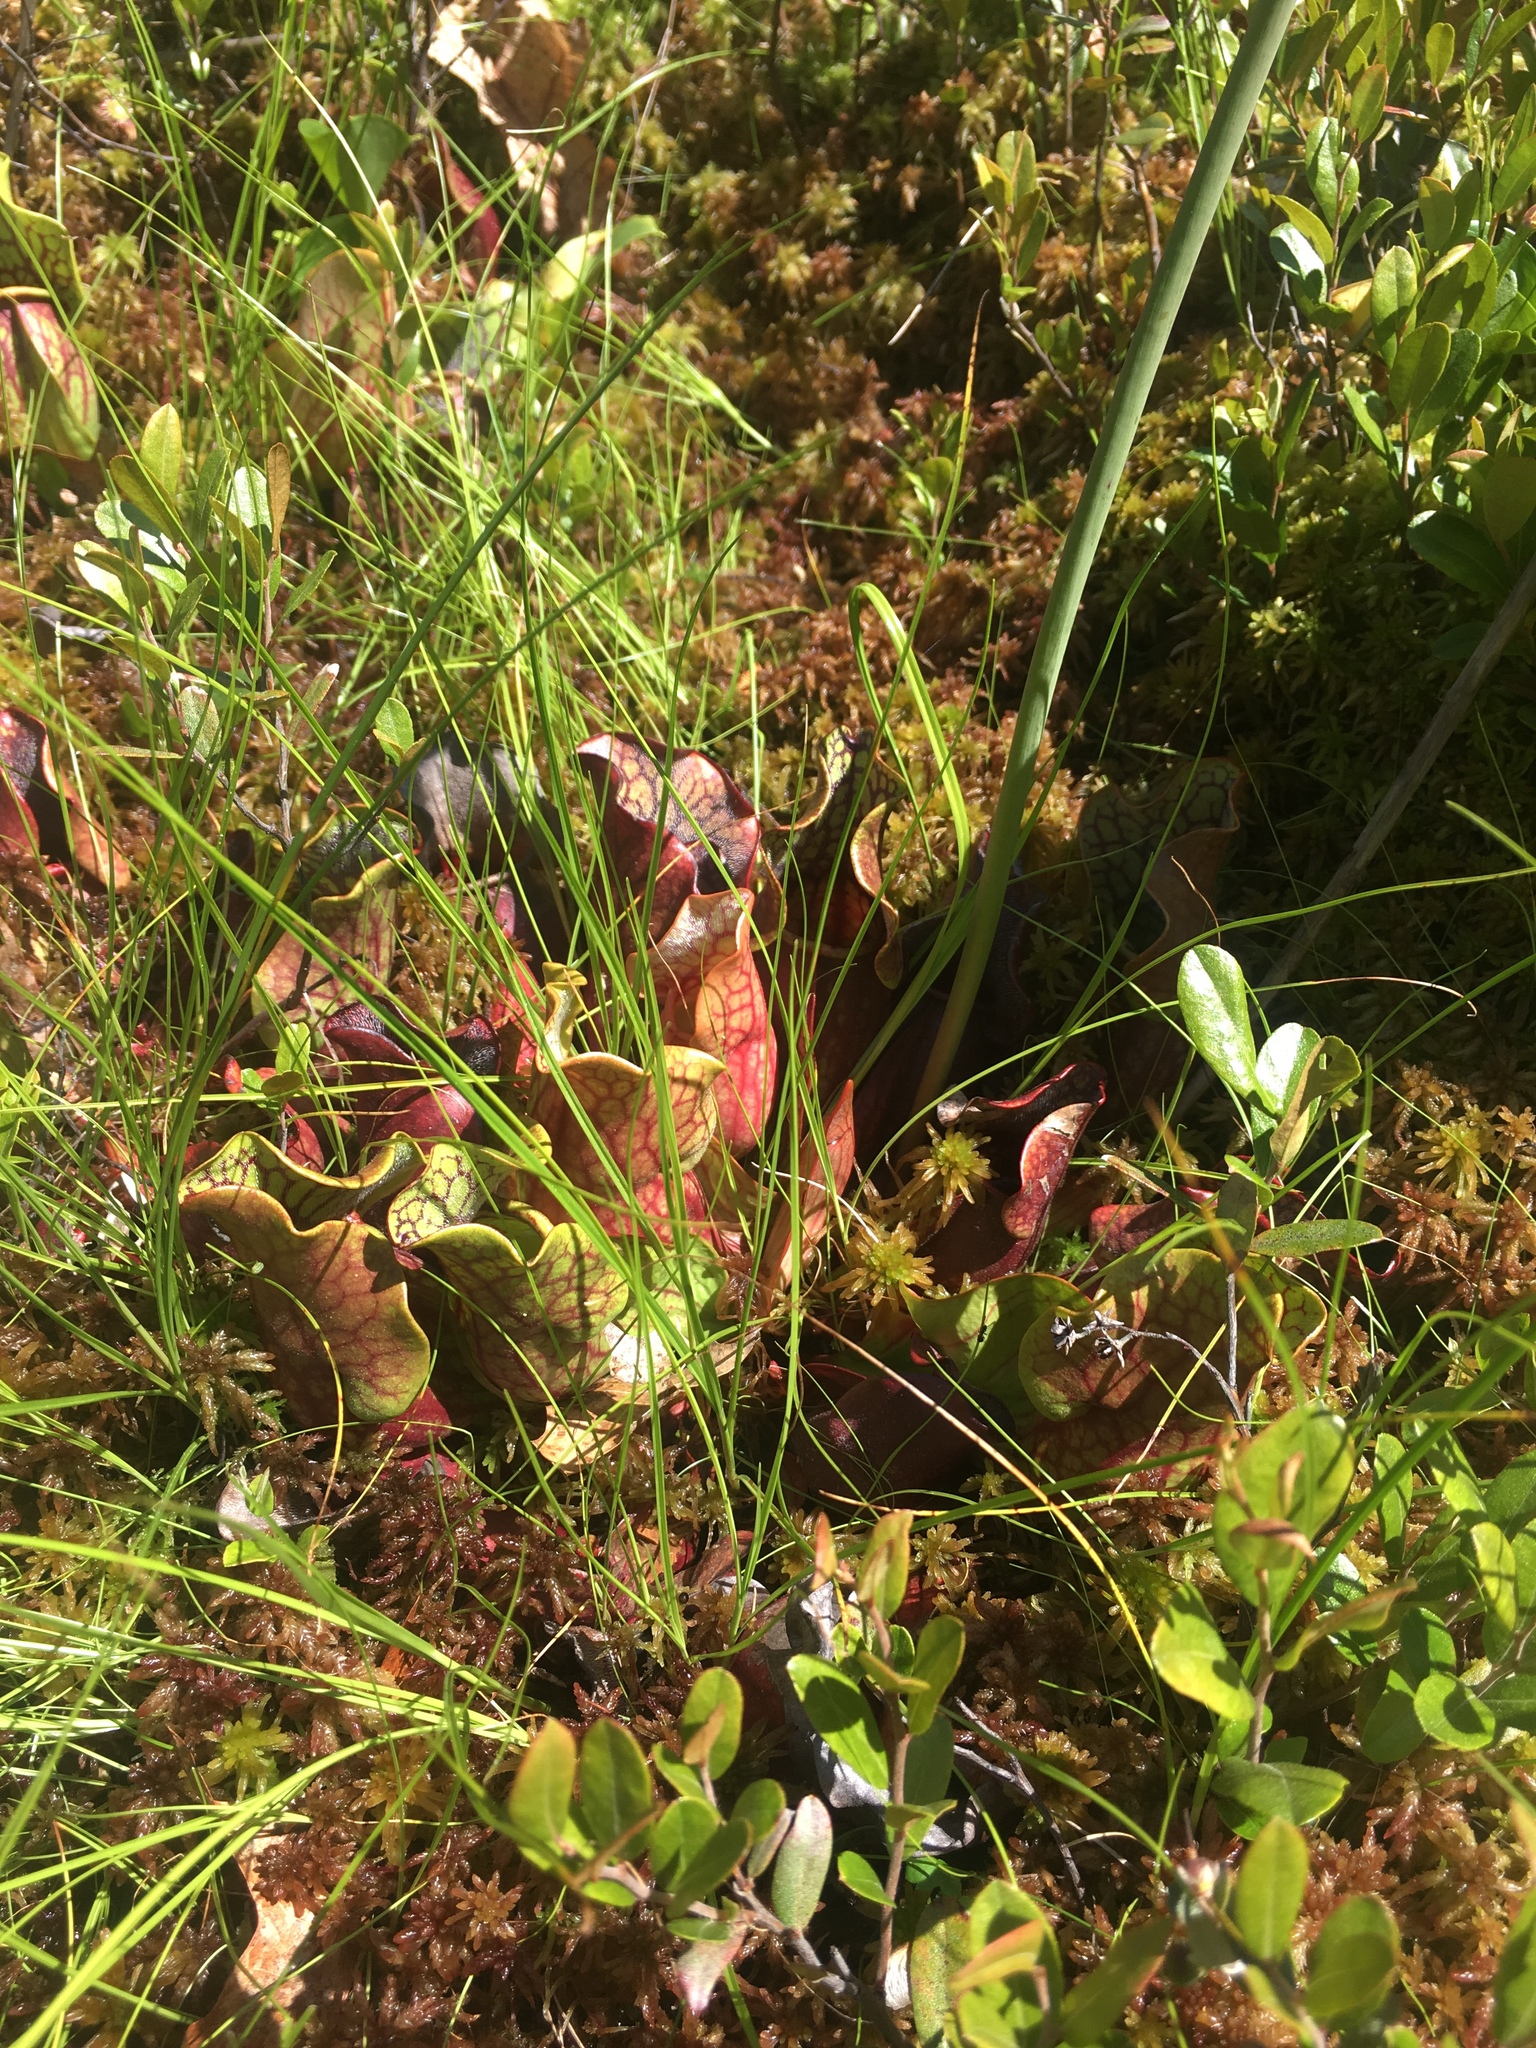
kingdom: Plantae
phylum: Tracheophyta
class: Magnoliopsida
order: Ericales
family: Sarraceniaceae
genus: Sarracenia
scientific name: Sarracenia purpurea
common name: Pitcherplant
